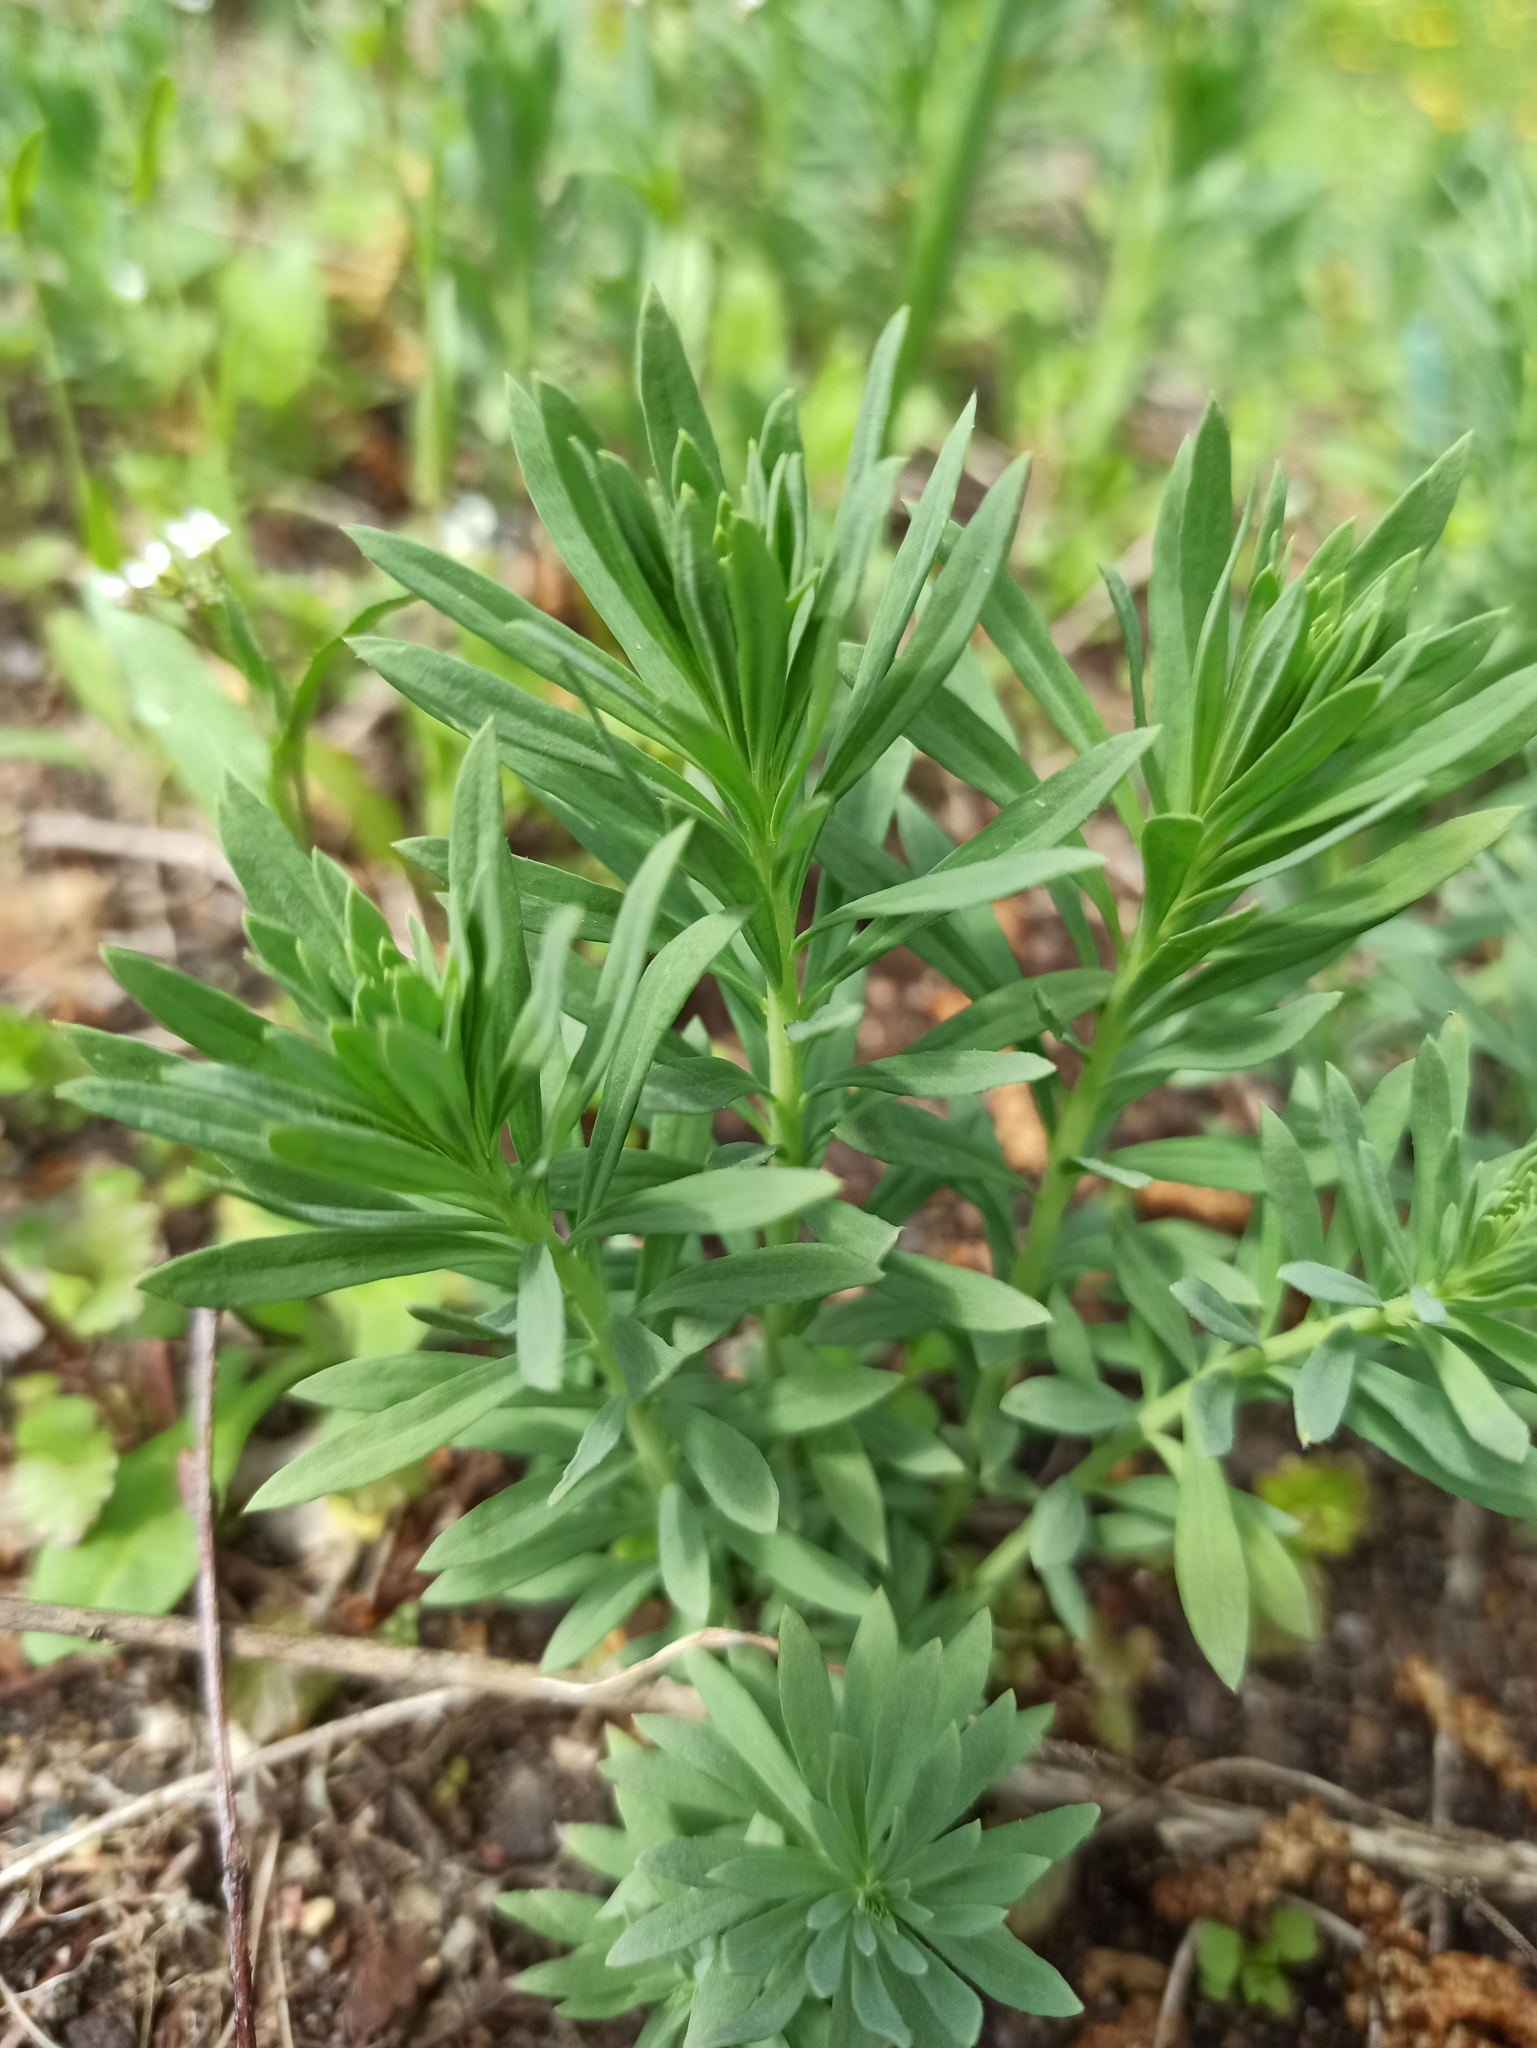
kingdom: Plantae
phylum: Tracheophyta
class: Magnoliopsida
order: Lamiales
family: Plantaginaceae
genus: Linaria
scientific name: Linaria vulgaris
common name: Butter and eggs
